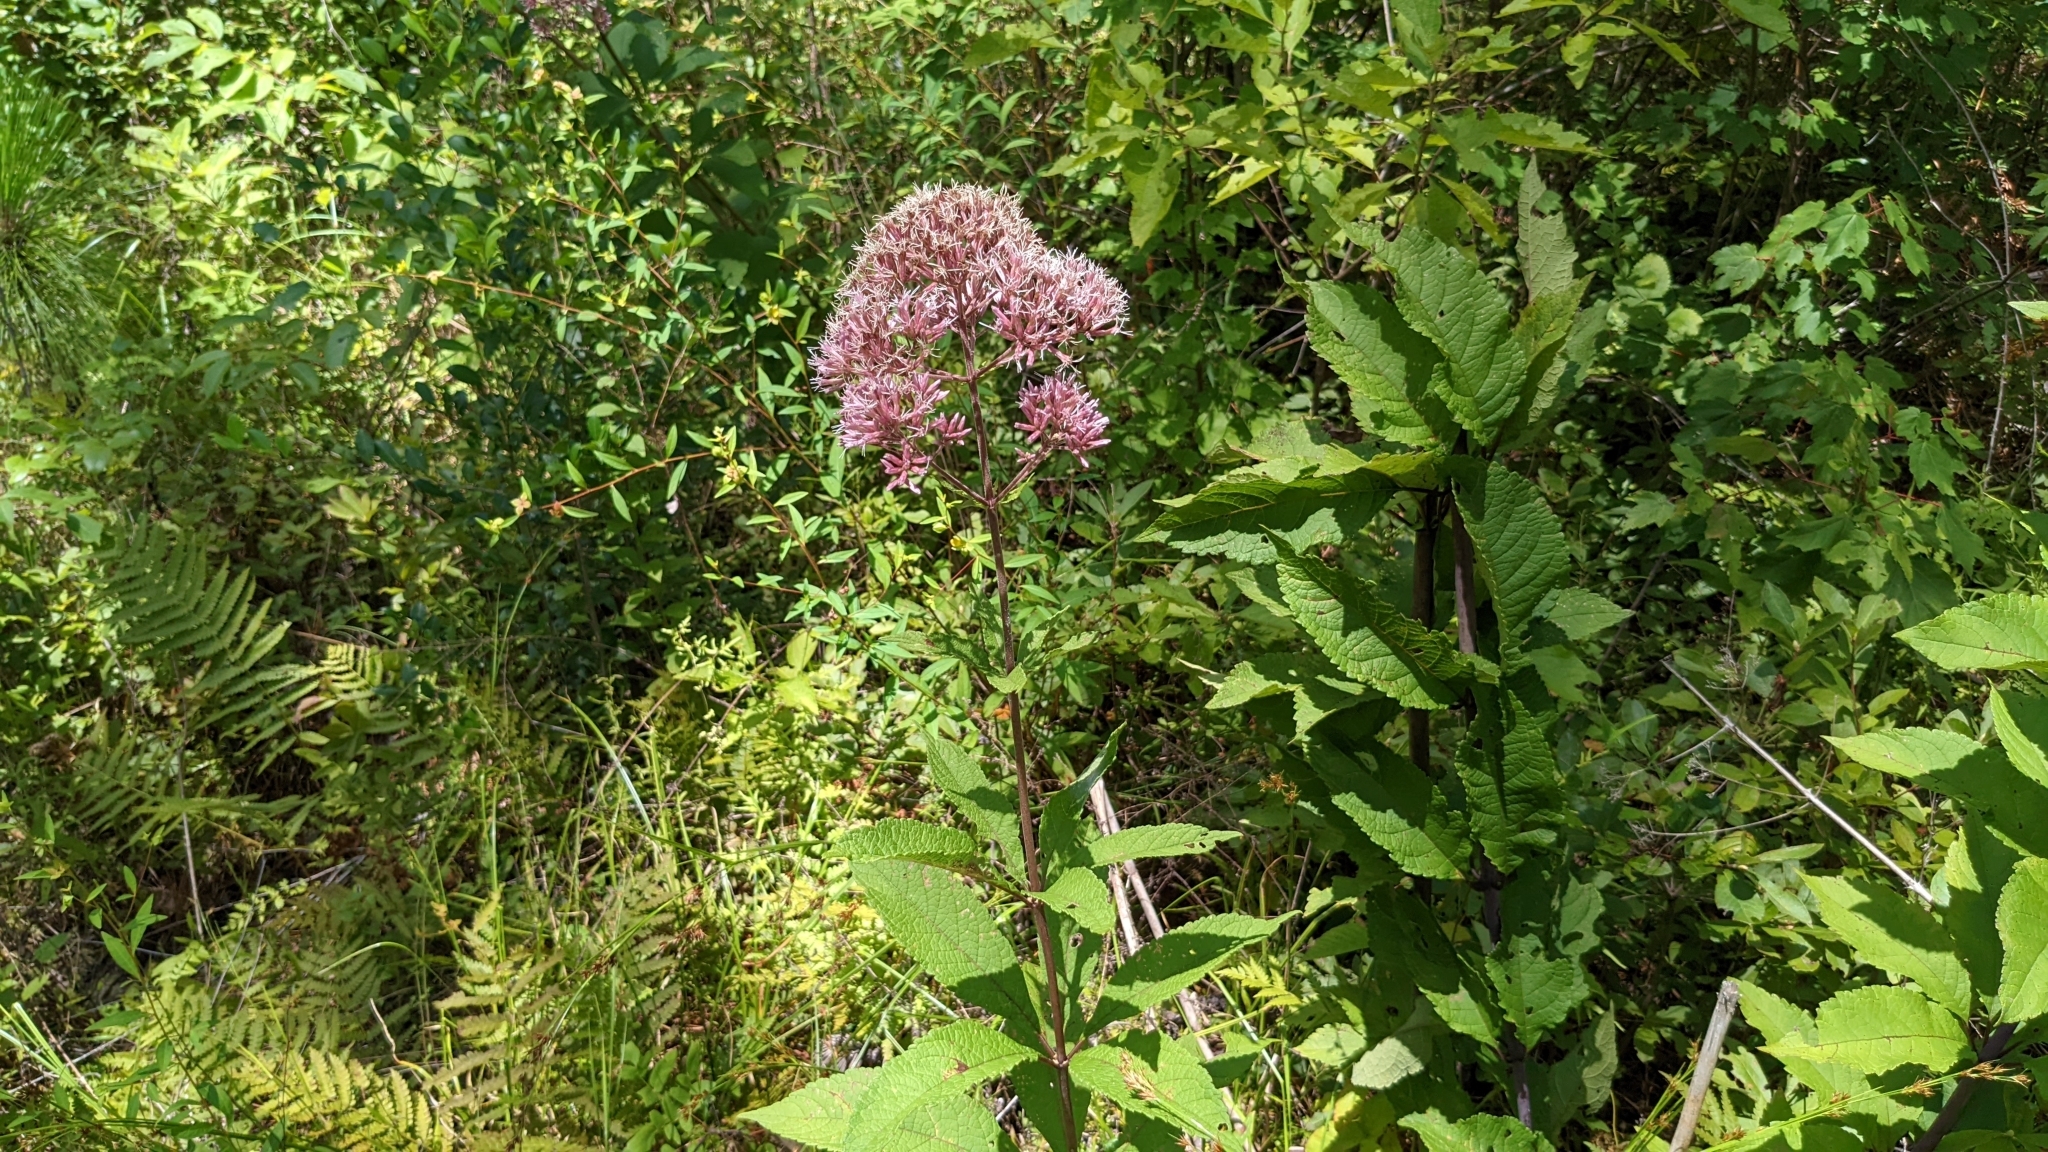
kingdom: Plantae
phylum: Tracheophyta
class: Magnoliopsida
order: Asterales
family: Asteraceae
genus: Eutrochium
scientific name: Eutrochium fistulosum
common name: Trumpetweed
